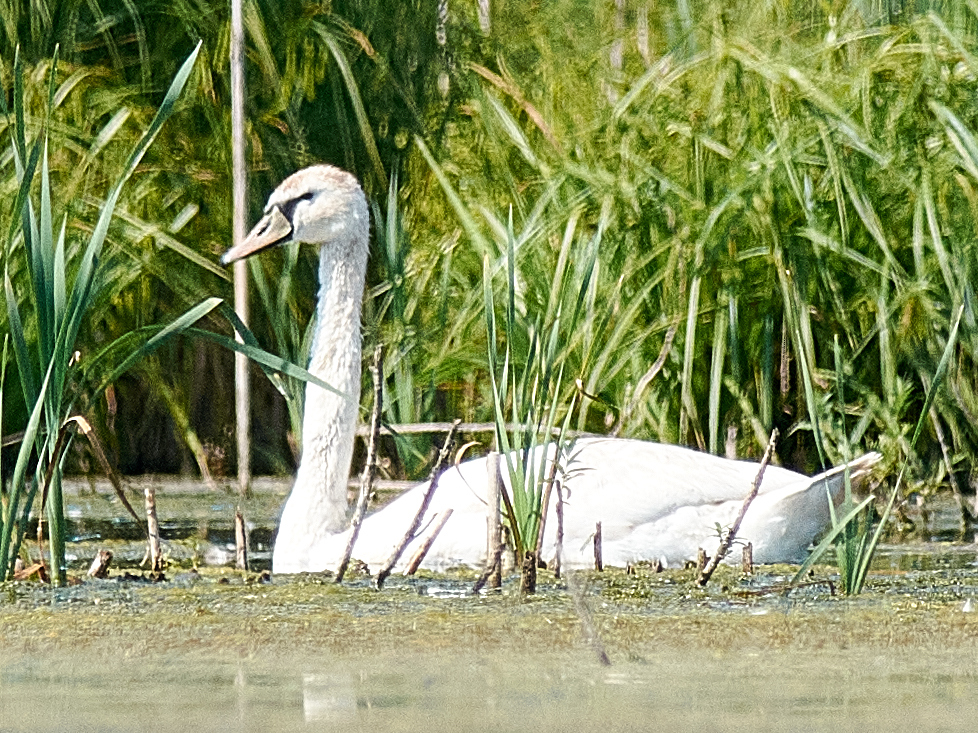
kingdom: Animalia
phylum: Chordata
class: Aves
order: Anseriformes
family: Anatidae
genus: Cygnus
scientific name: Cygnus olor
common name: Mute swan
